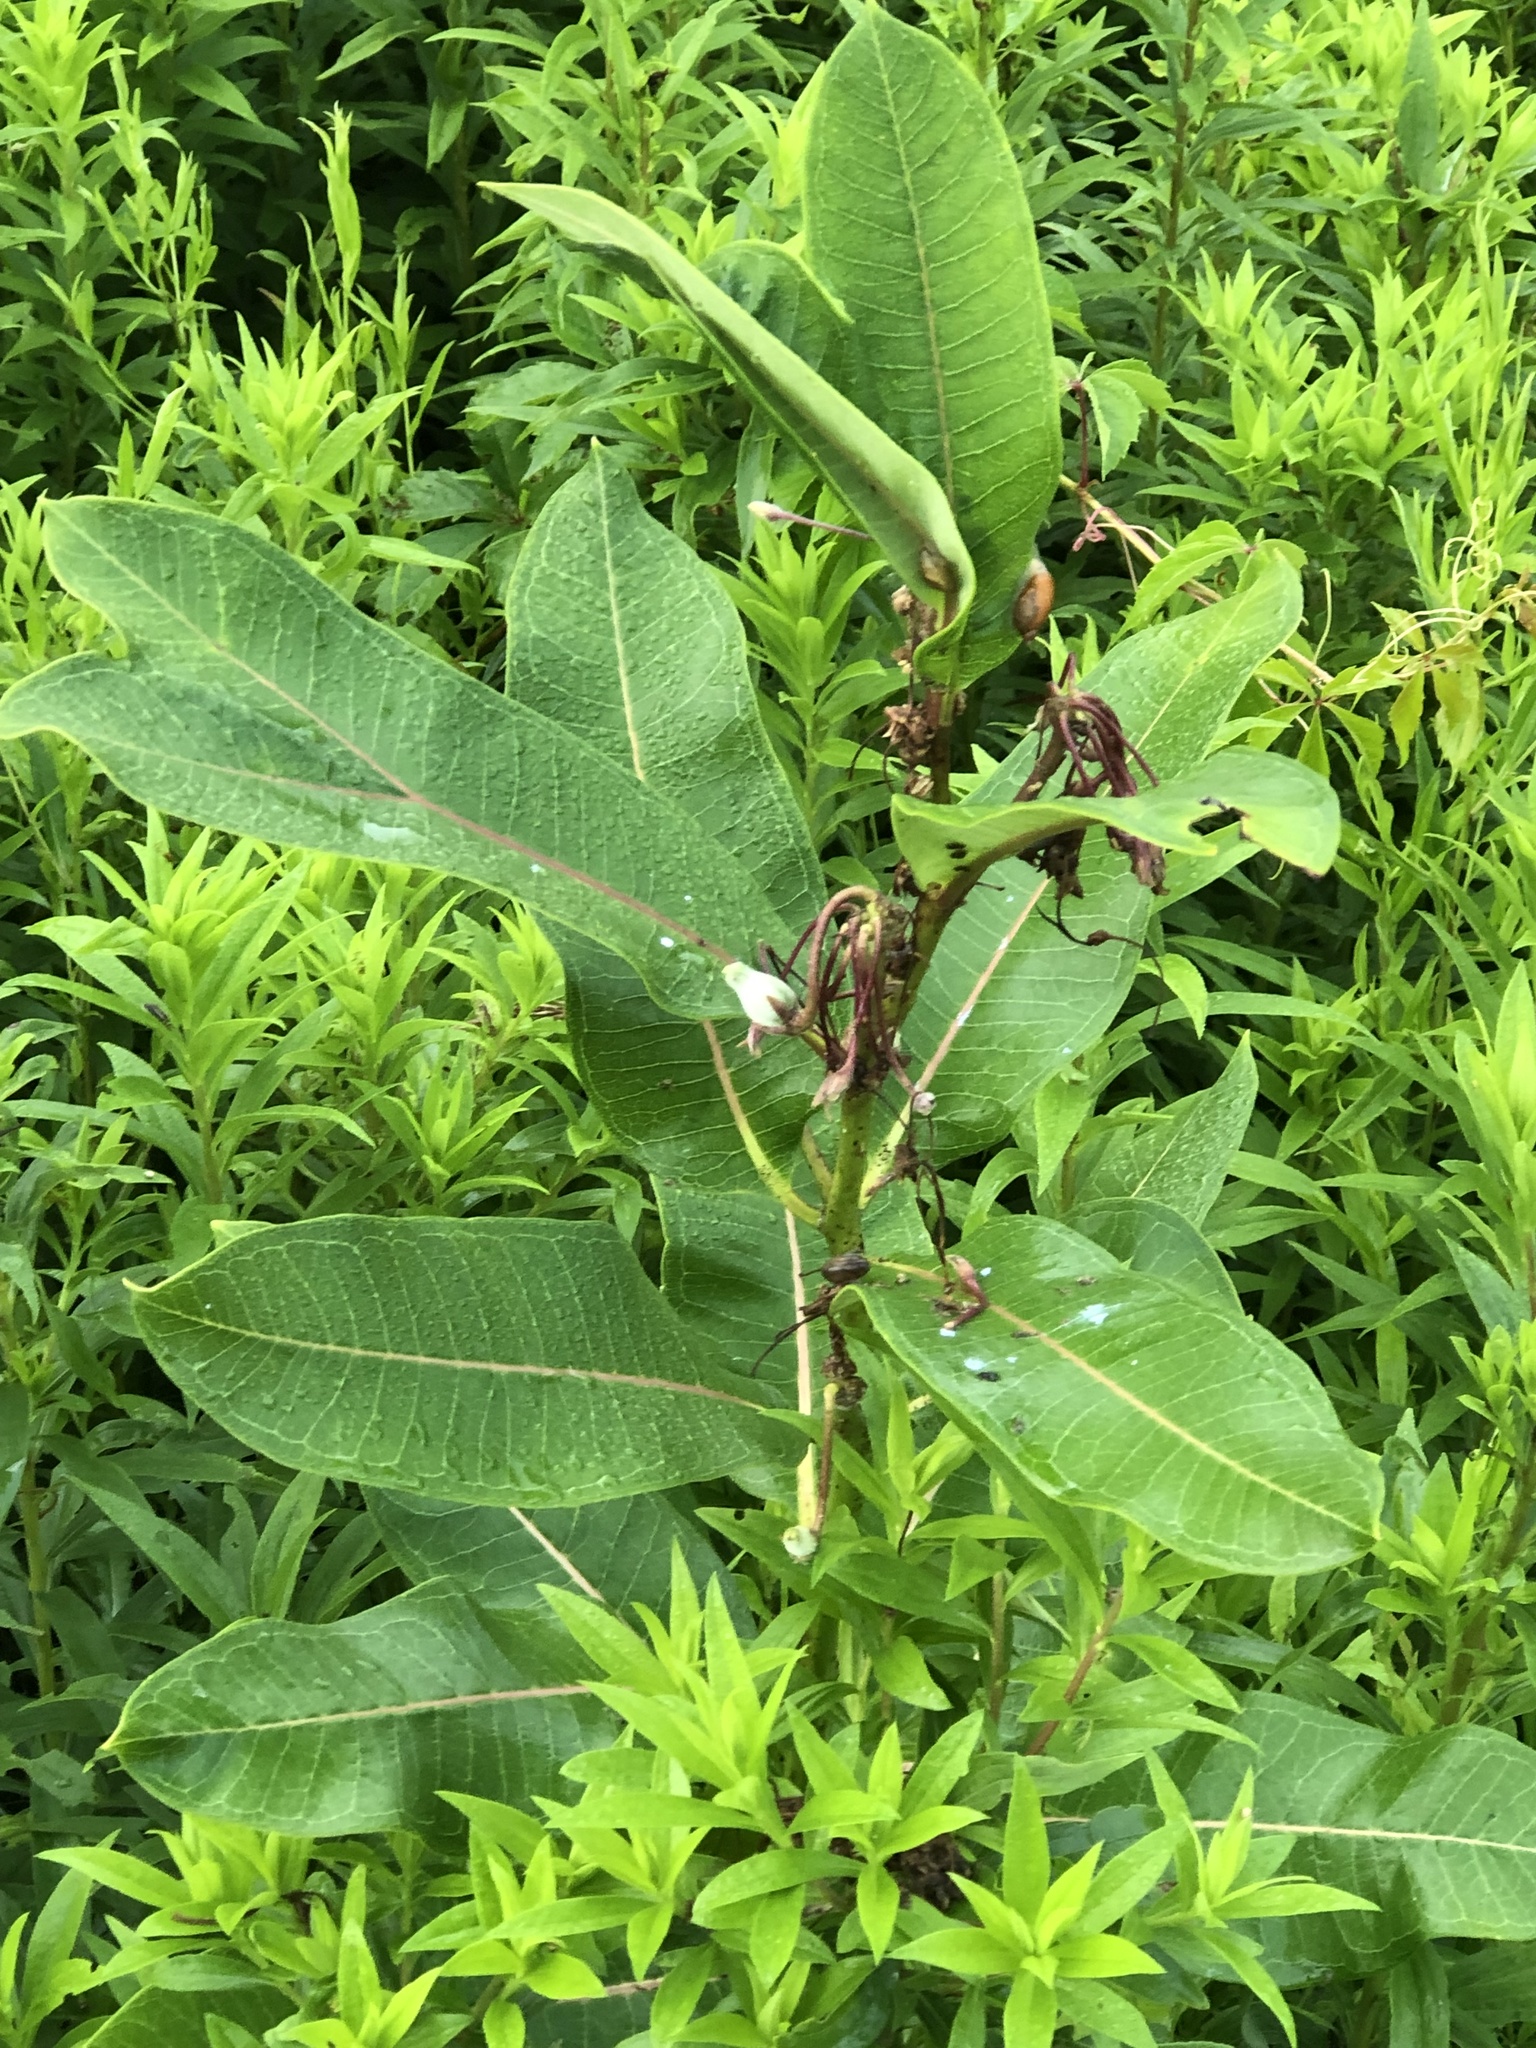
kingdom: Plantae
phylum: Tracheophyta
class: Magnoliopsida
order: Gentianales
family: Apocynaceae
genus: Asclepias
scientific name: Asclepias syriaca
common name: Common milkweed
